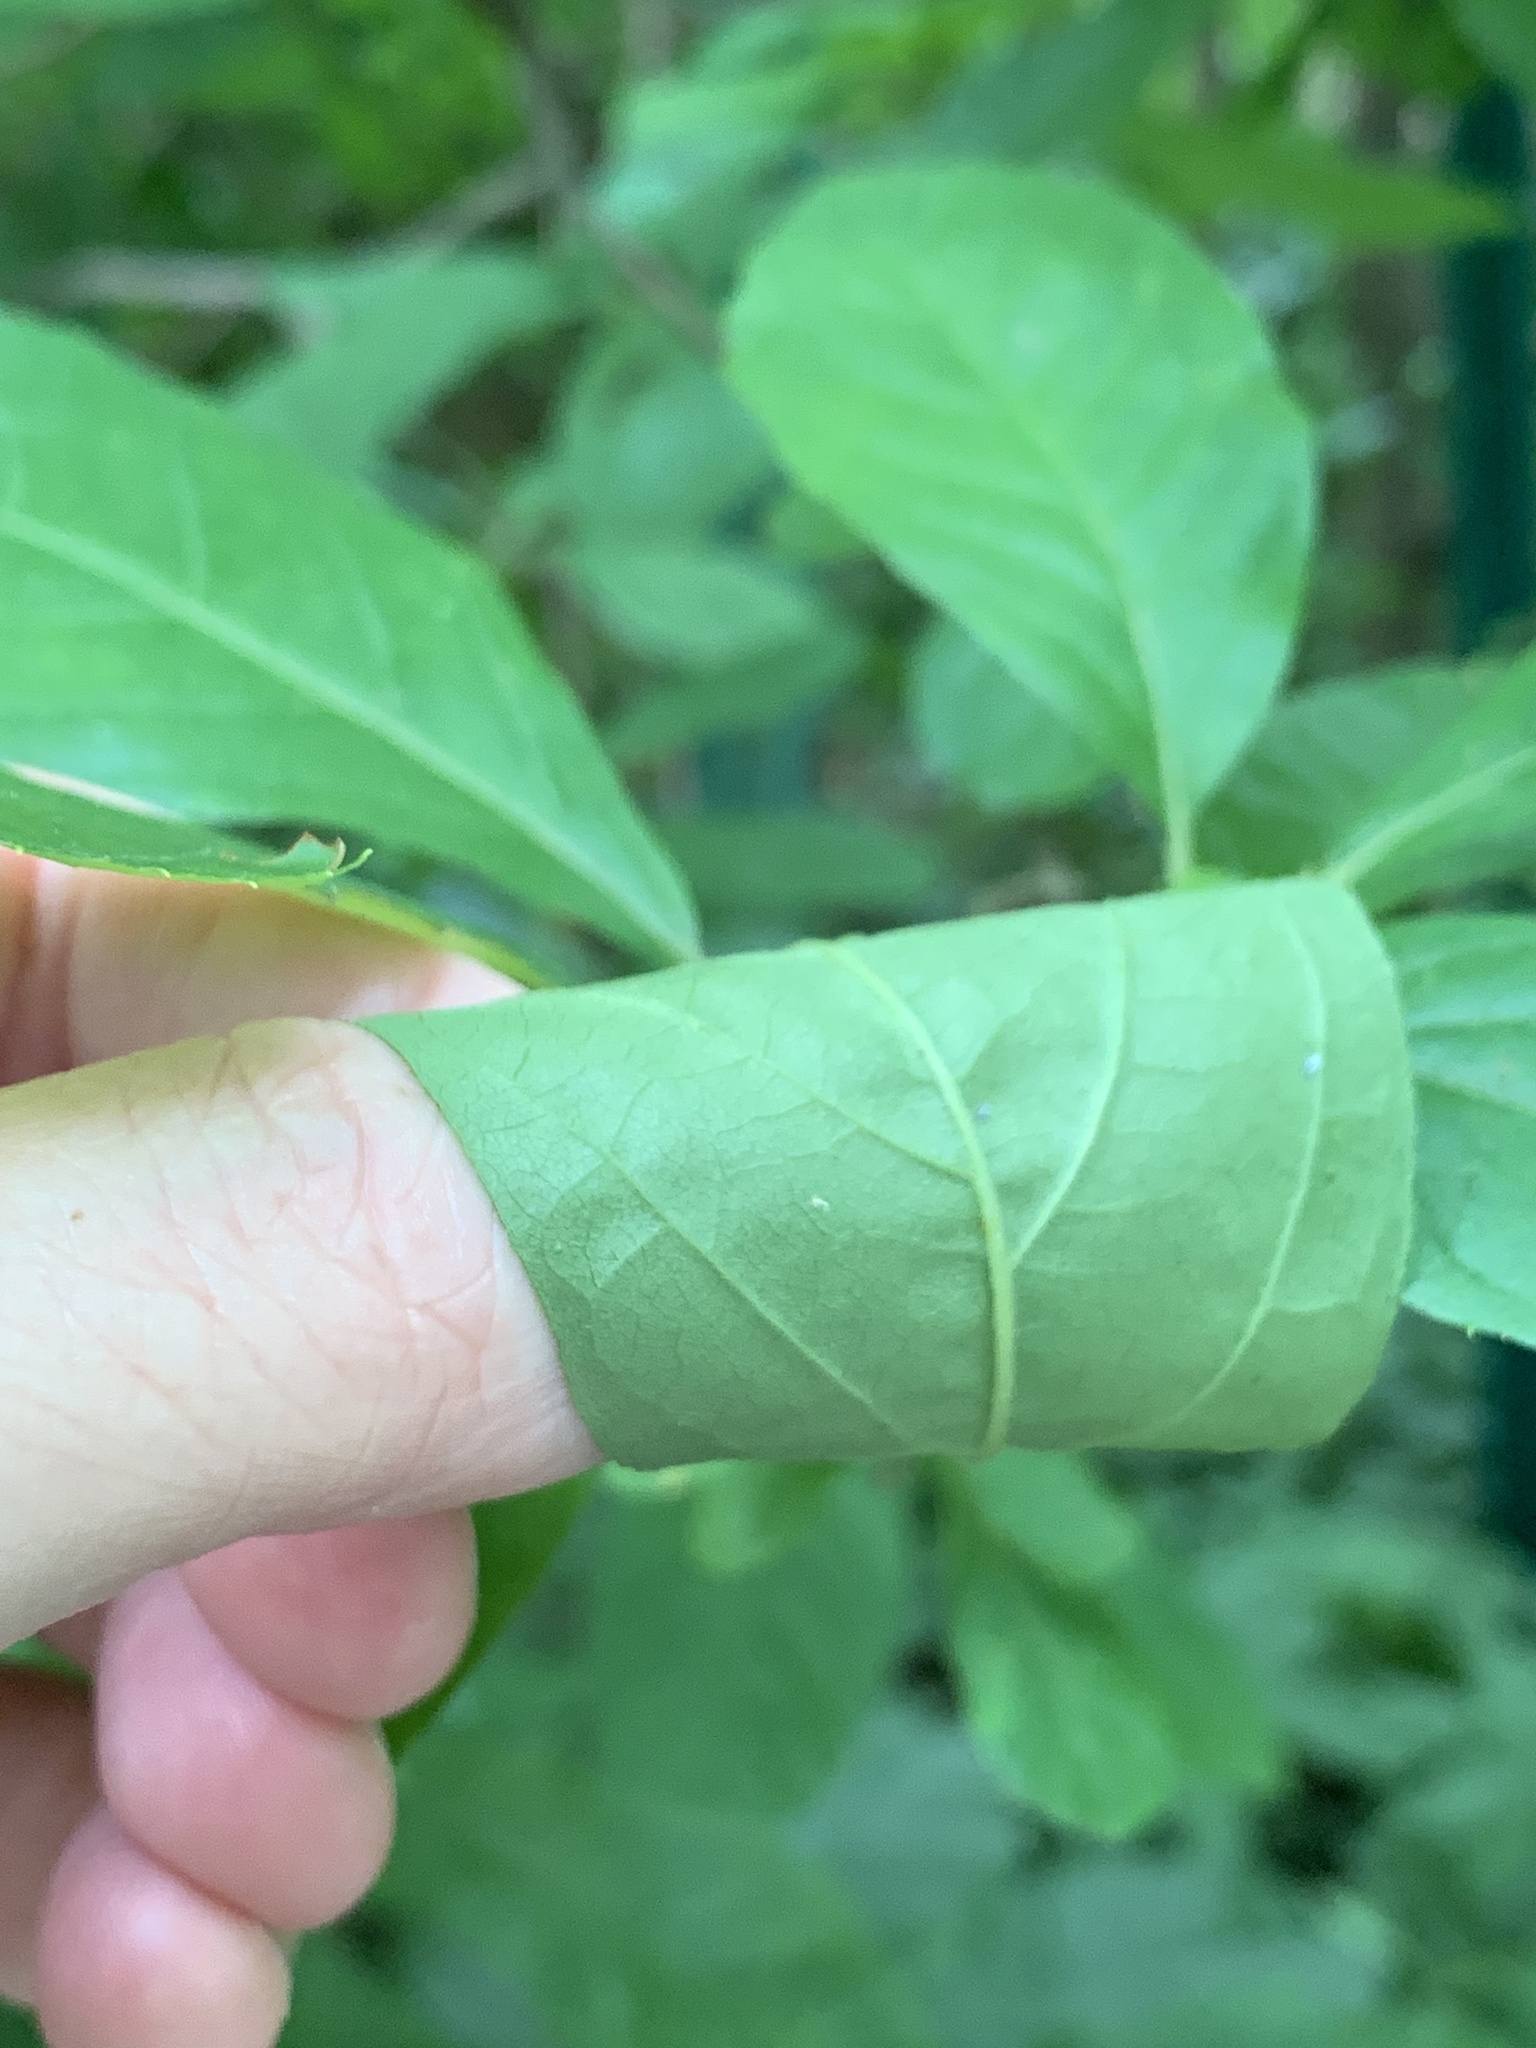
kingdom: Plantae
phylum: Tracheophyta
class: Magnoliopsida
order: Ericales
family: Clethraceae
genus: Clethra
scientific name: Clethra alnifolia
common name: Sweet pepperbush
